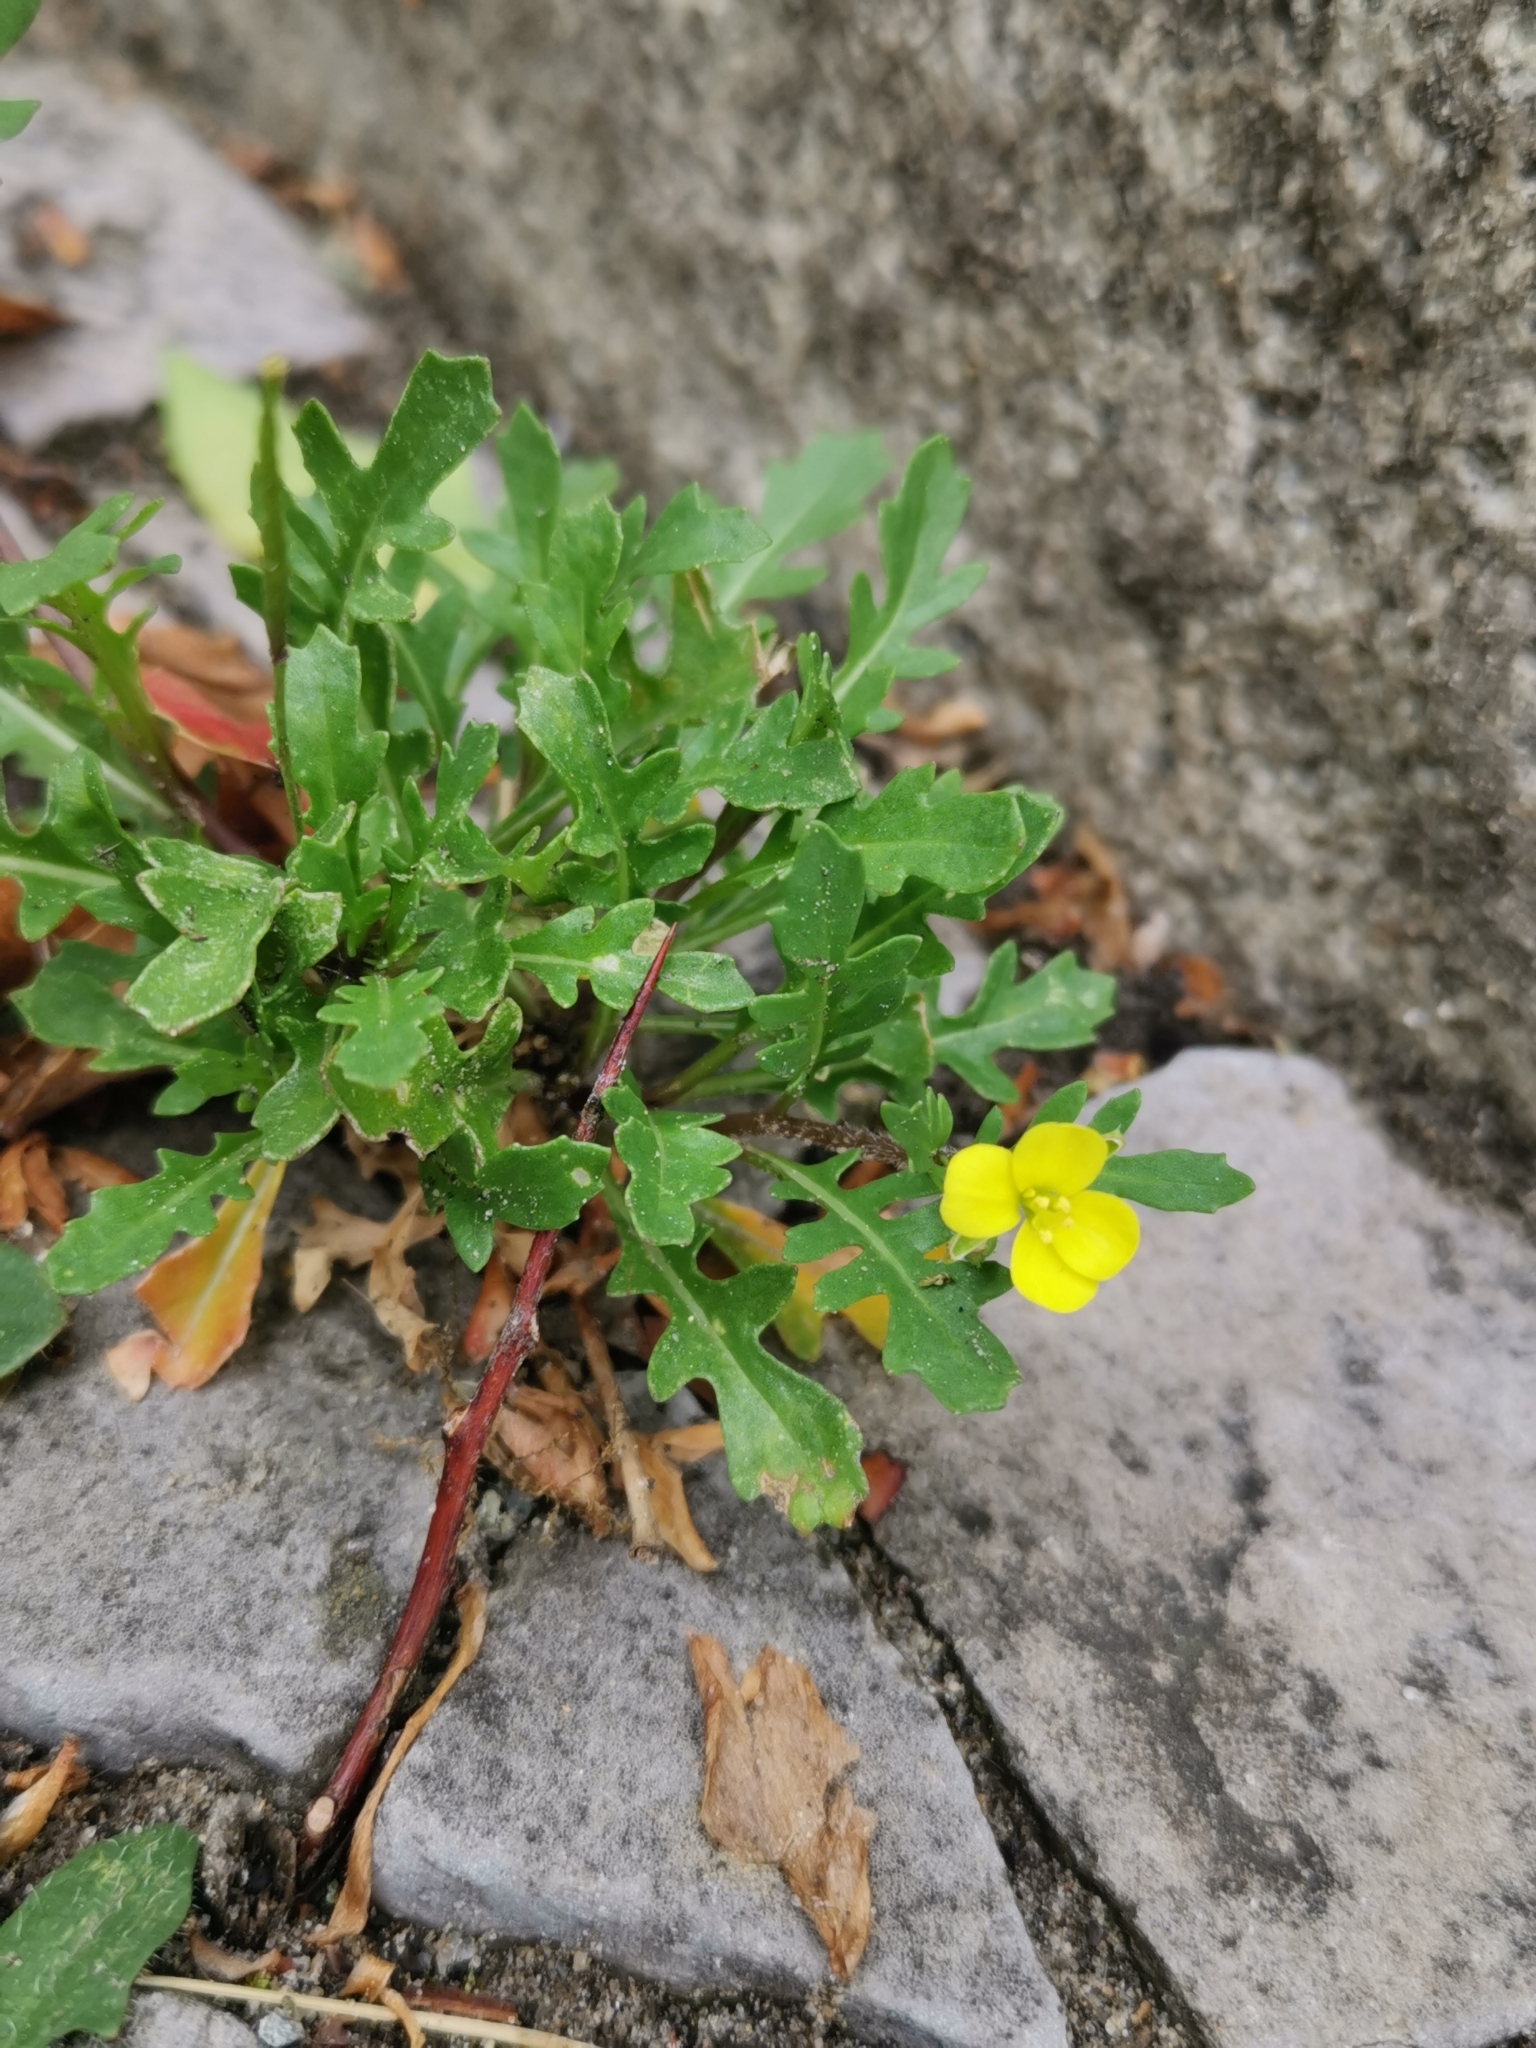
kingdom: Plantae
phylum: Tracheophyta
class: Magnoliopsida
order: Brassicales
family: Brassicaceae
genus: Diplotaxis
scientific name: Diplotaxis muralis
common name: Annual wall-rocket
